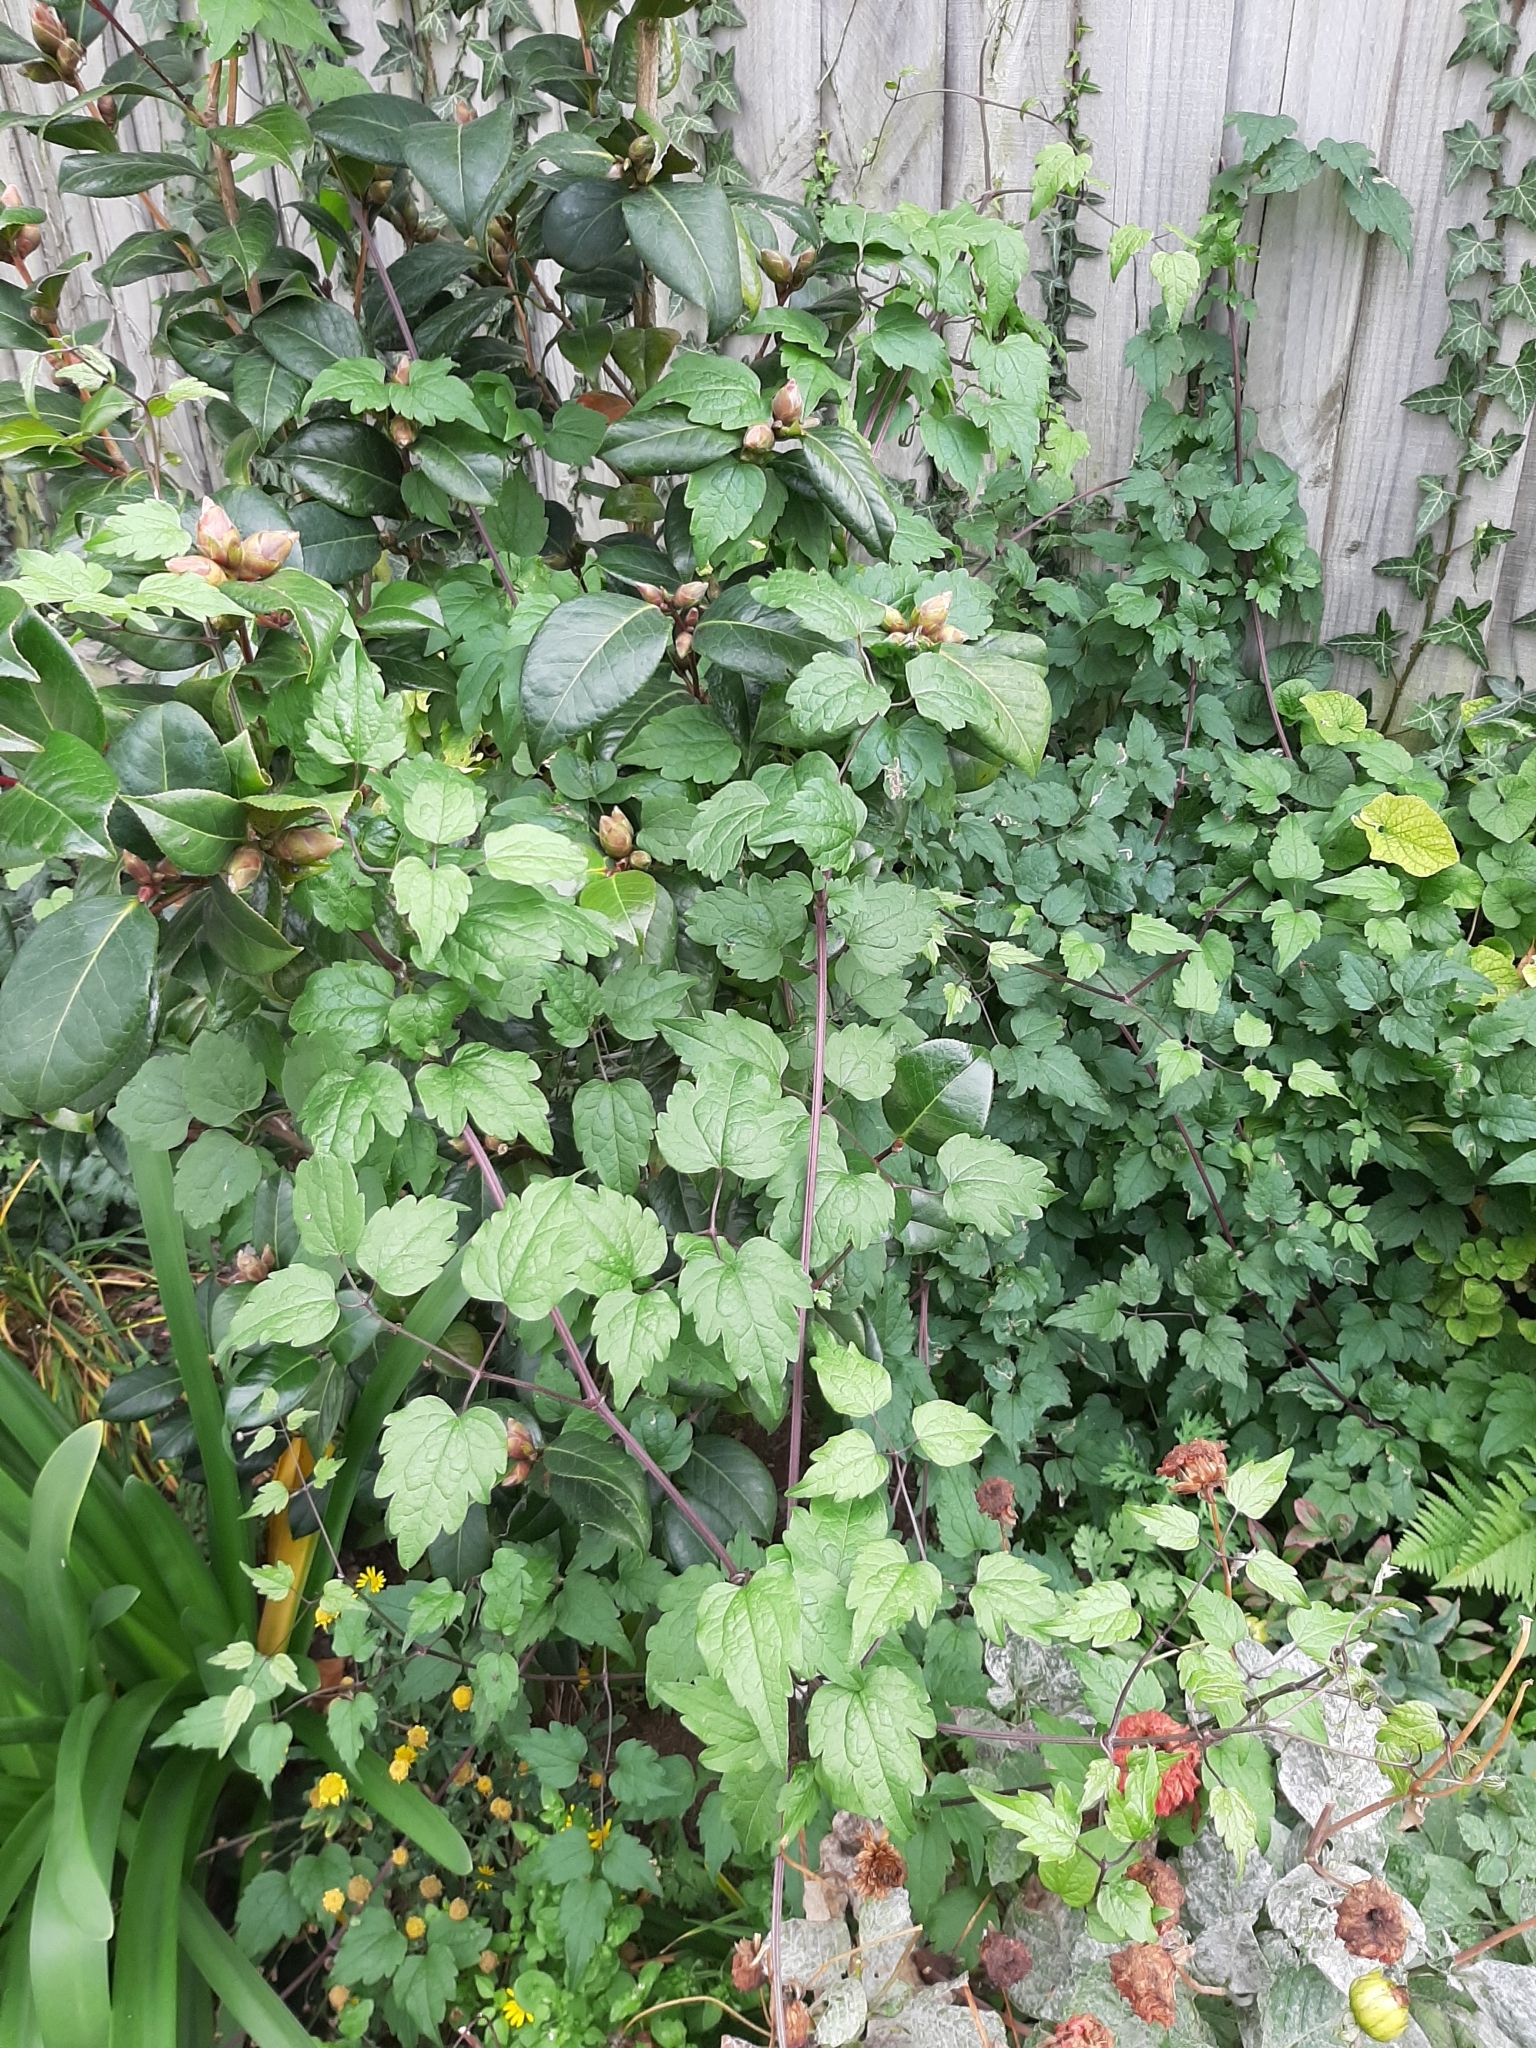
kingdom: Plantae
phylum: Tracheophyta
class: Magnoliopsida
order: Ranunculales
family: Ranunculaceae
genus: Clematis
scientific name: Clematis vitalba
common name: Evergreen clematis
